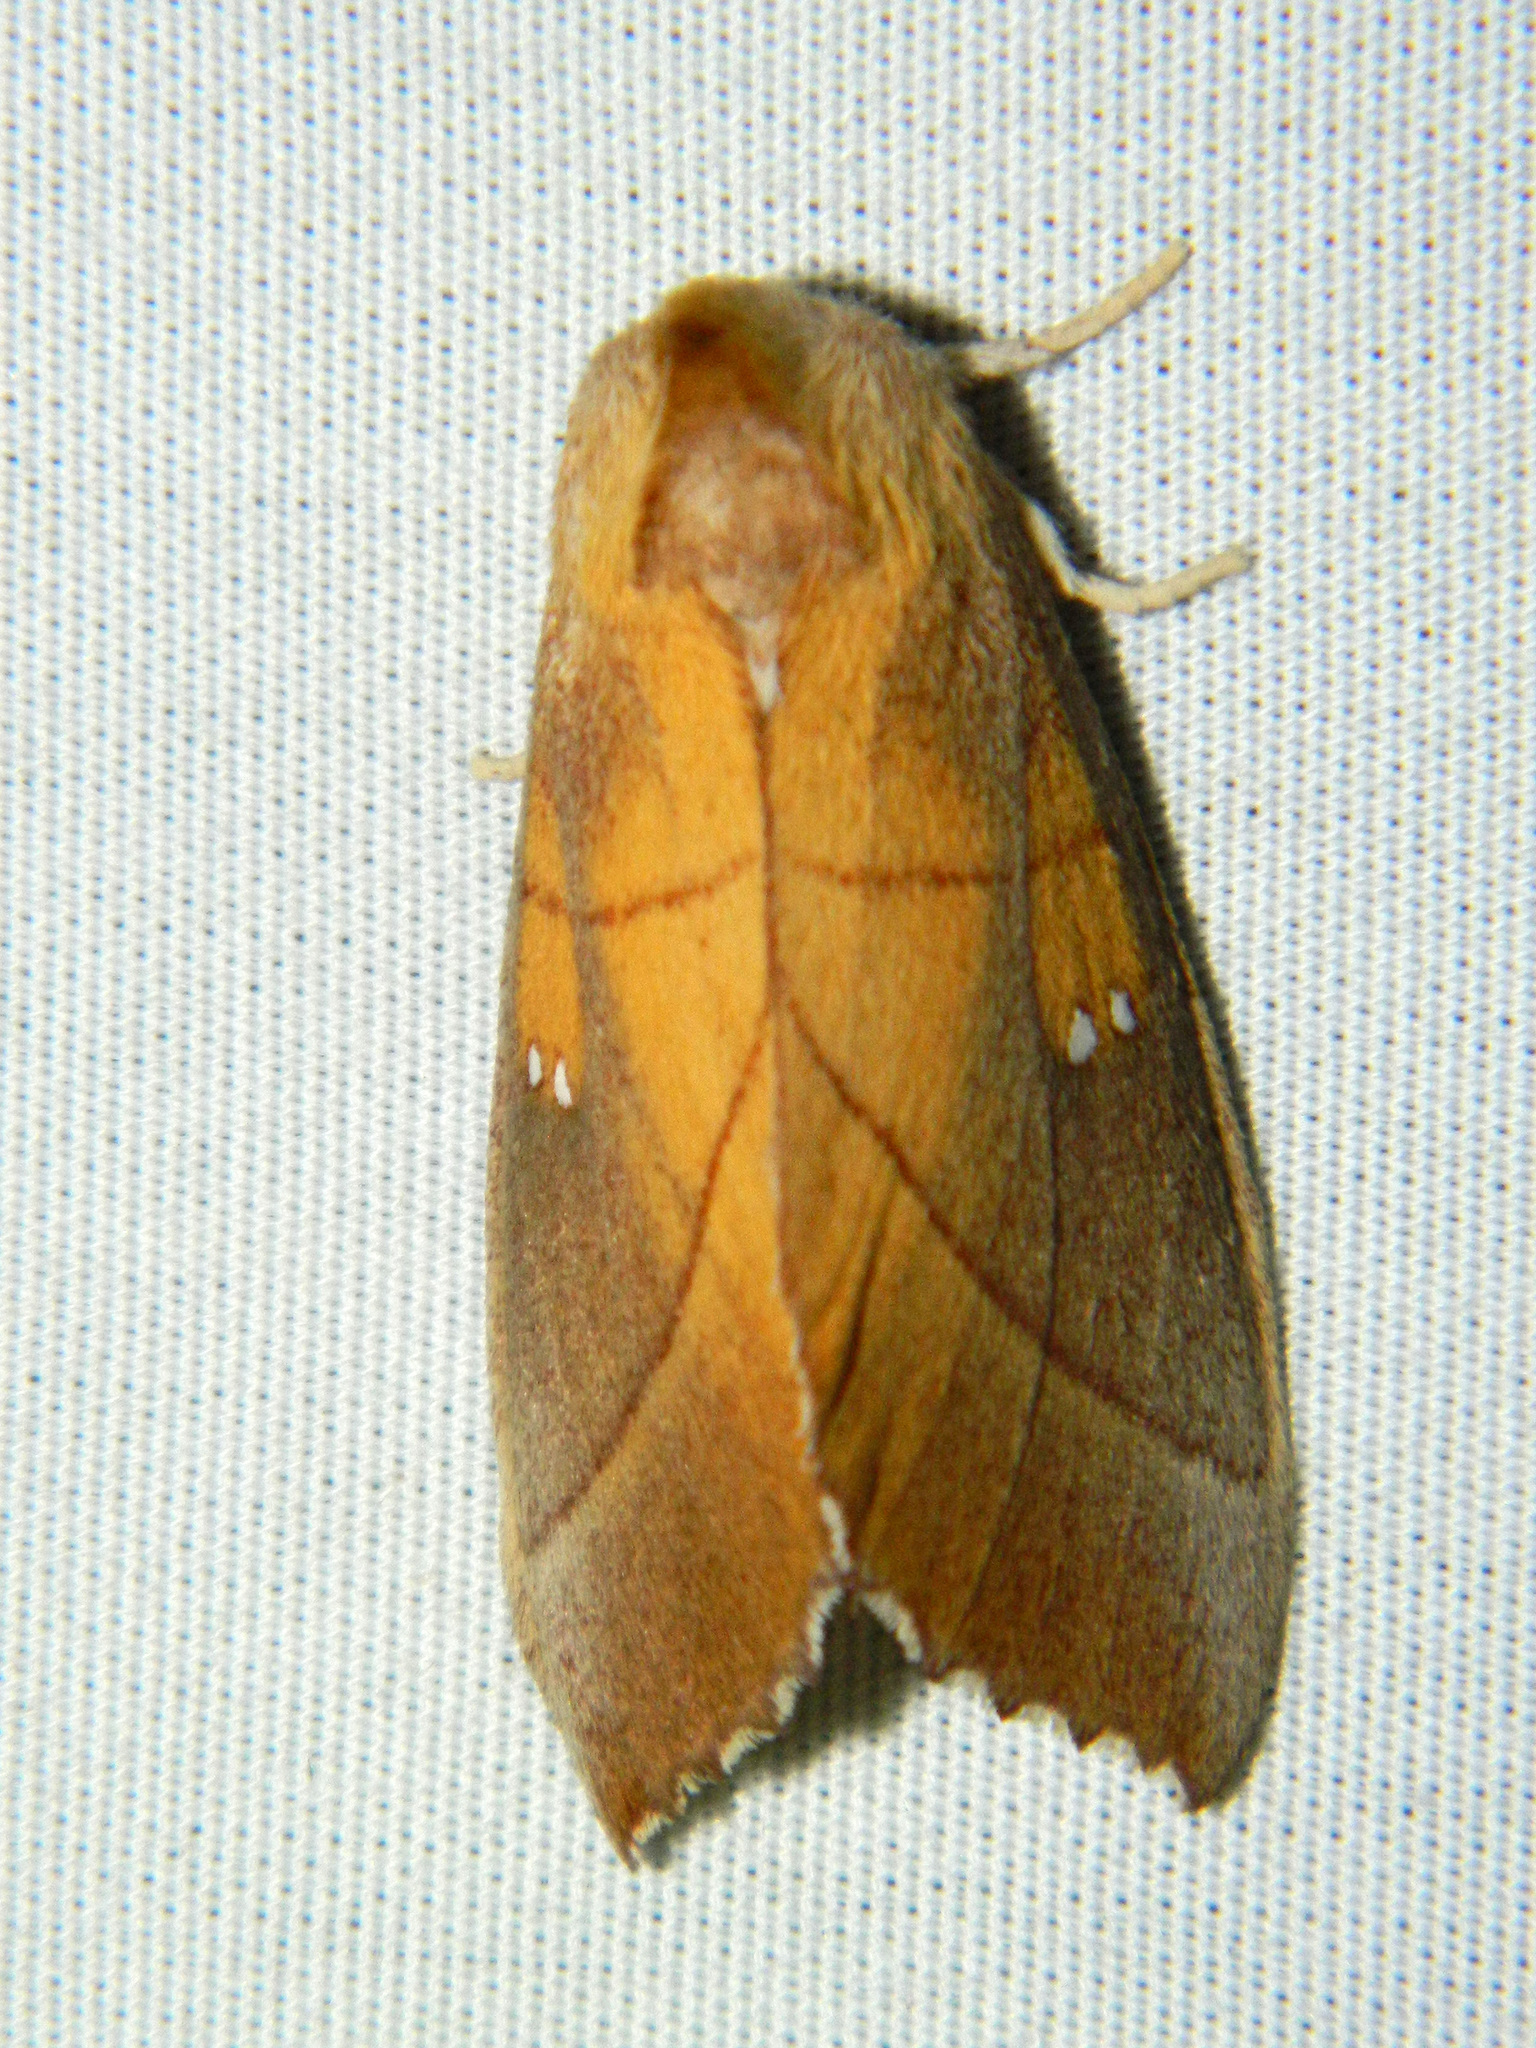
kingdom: Animalia
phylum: Arthropoda
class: Insecta
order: Lepidoptera
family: Notodontidae
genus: Nadata
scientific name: Nadata gibbosa
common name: White-dotted prominent
